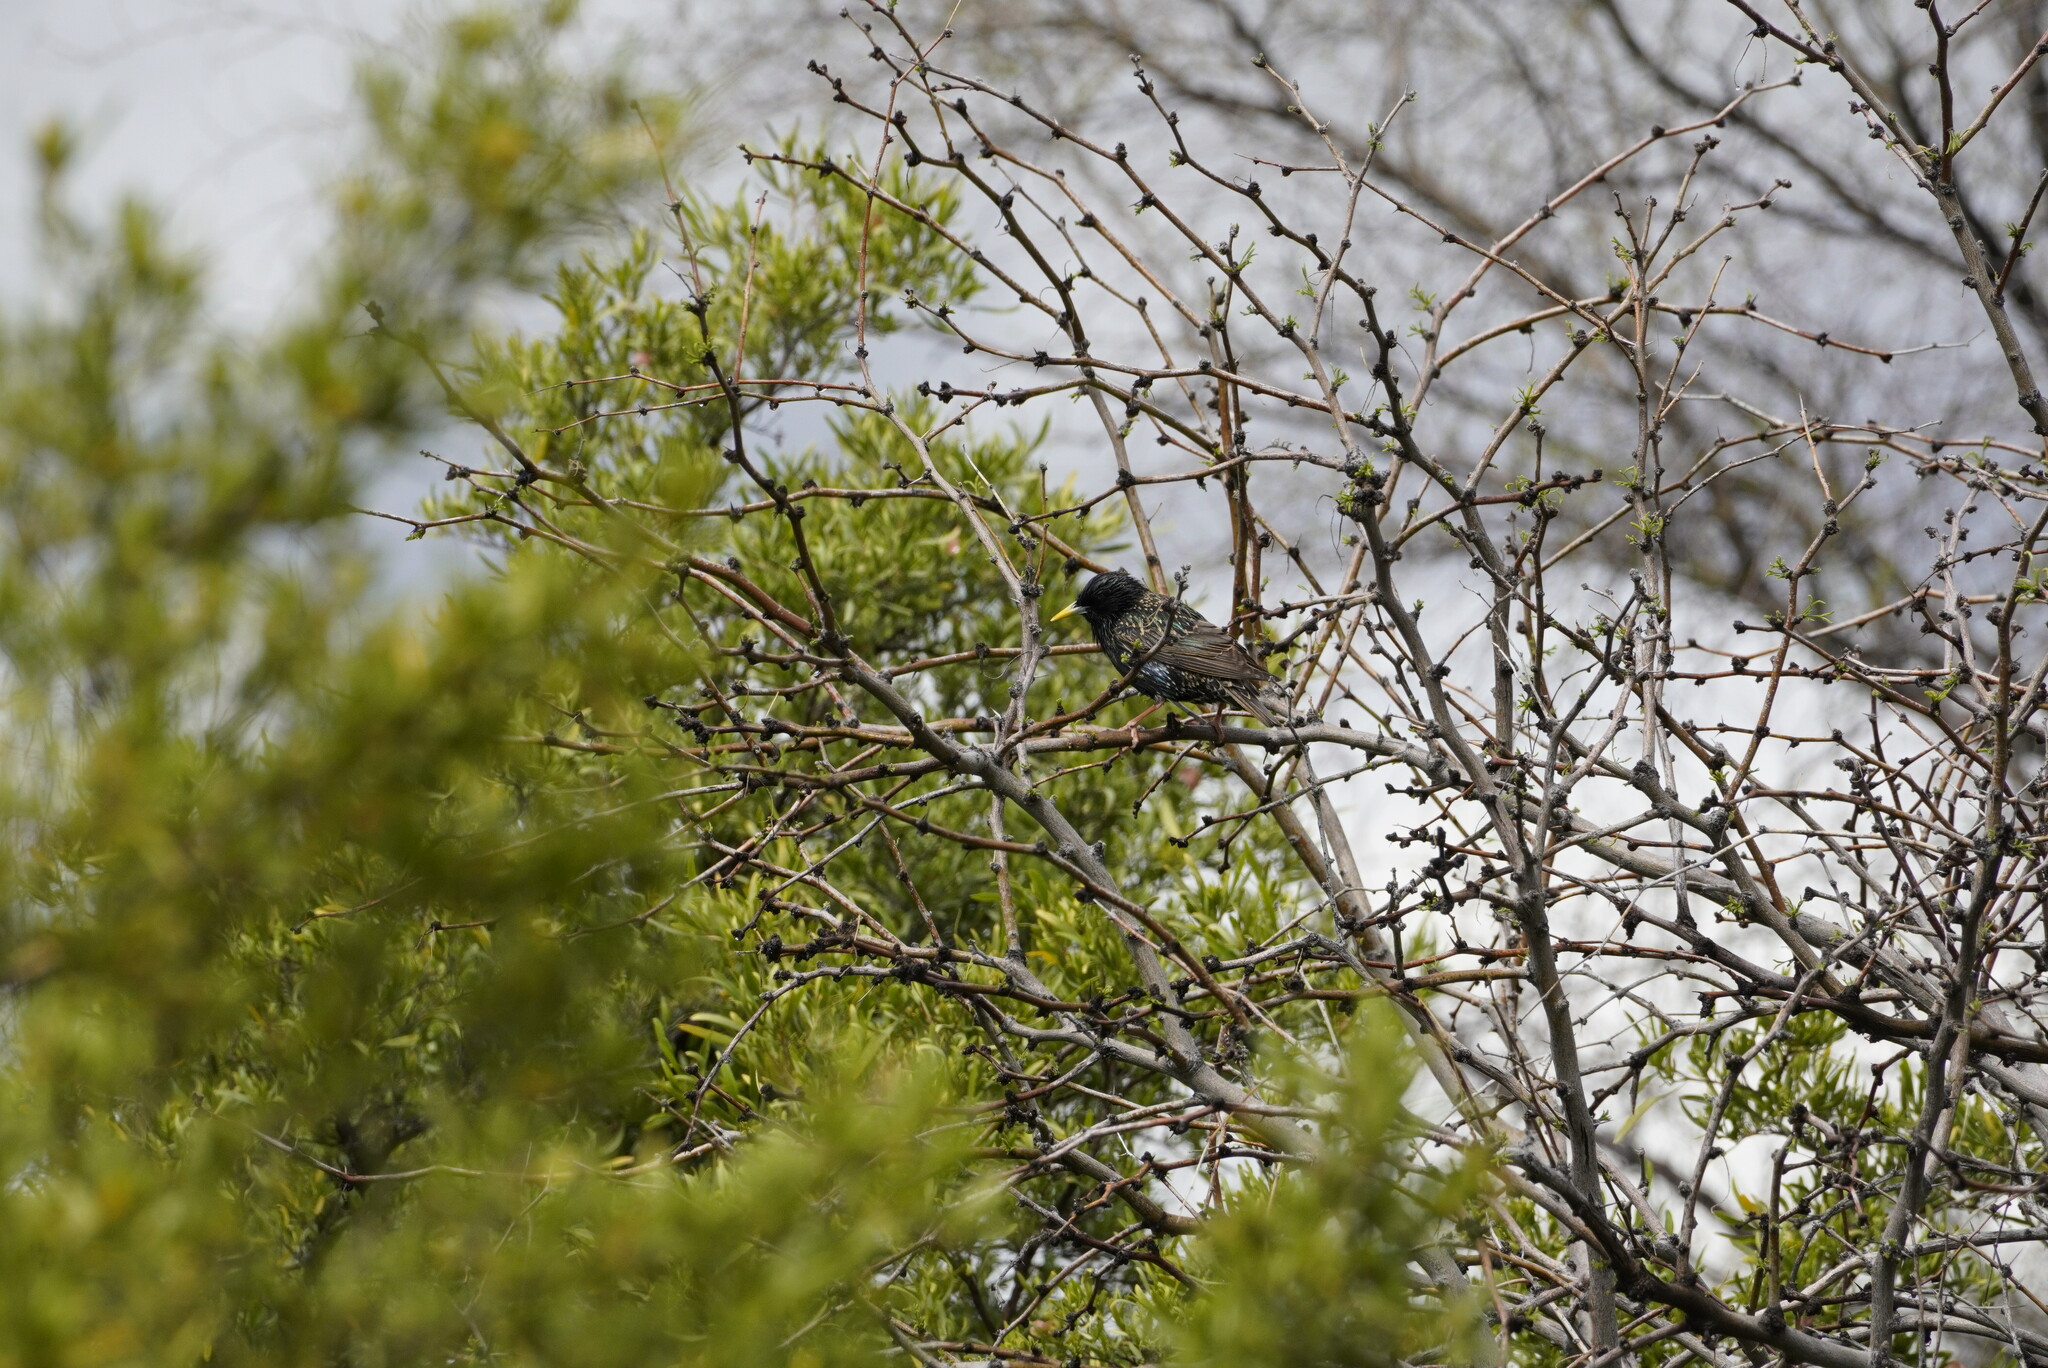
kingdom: Animalia
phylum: Chordata
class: Aves
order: Passeriformes
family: Sturnidae
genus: Sturnus
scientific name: Sturnus vulgaris
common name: Common starling
